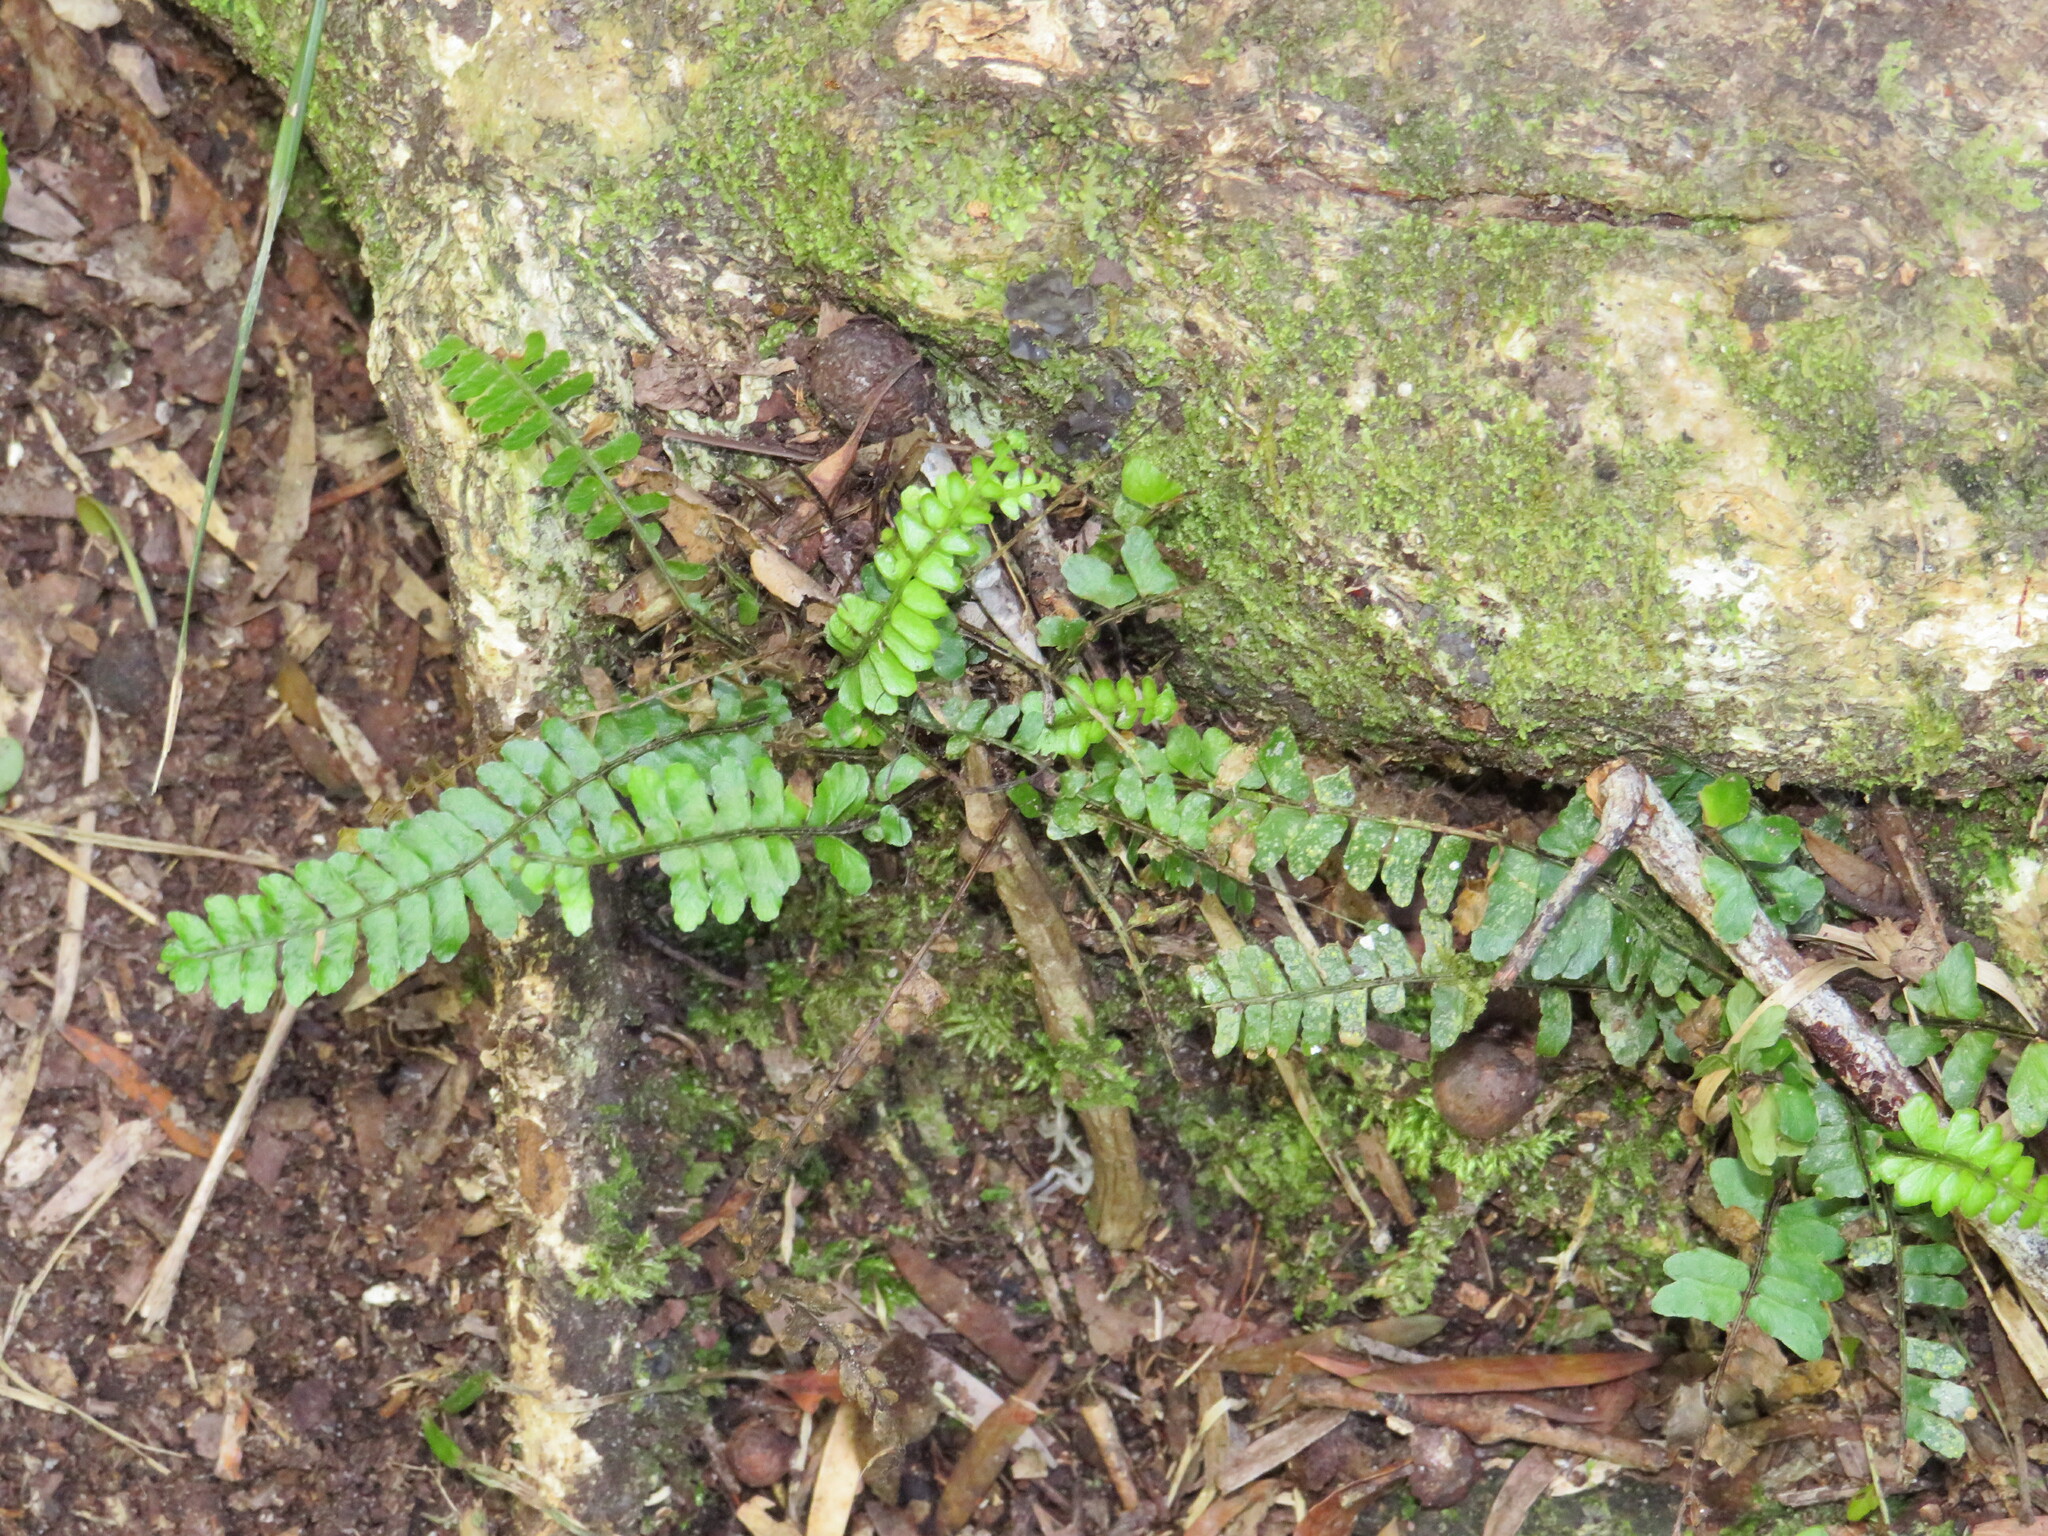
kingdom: Plantae
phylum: Tracheophyta
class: Polypodiopsida
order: Polypodiales
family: Aspleniaceae
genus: Asplenium
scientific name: Asplenium lunulatum
